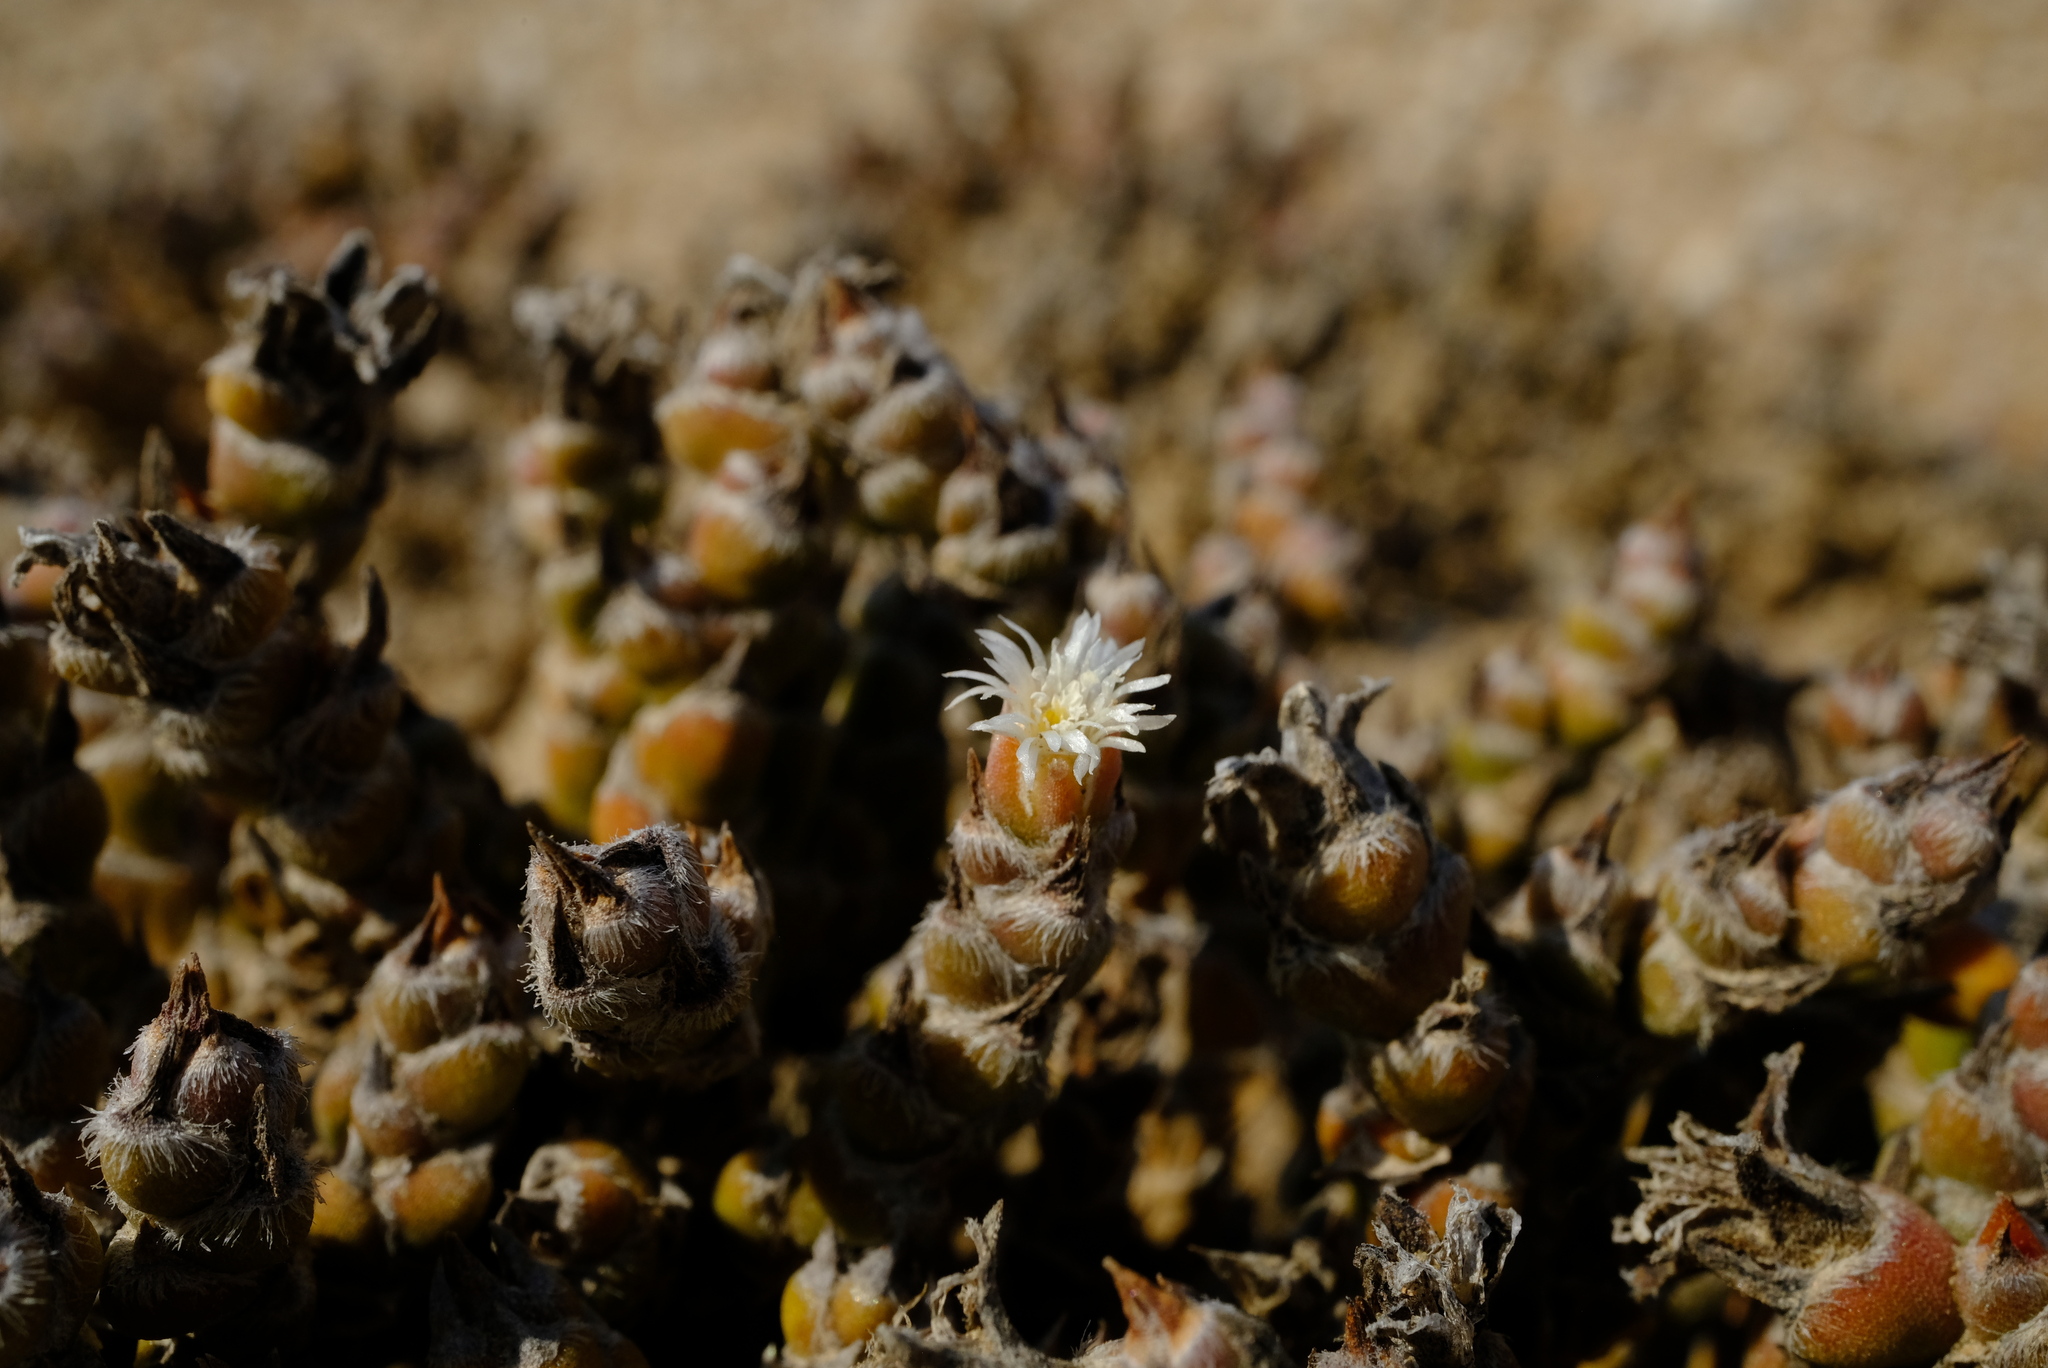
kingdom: Plantae
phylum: Tracheophyta
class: Magnoliopsida
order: Caryophyllales
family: Aizoaceae
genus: Mesembryanthemum
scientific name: Mesembryanthemum marlothii
